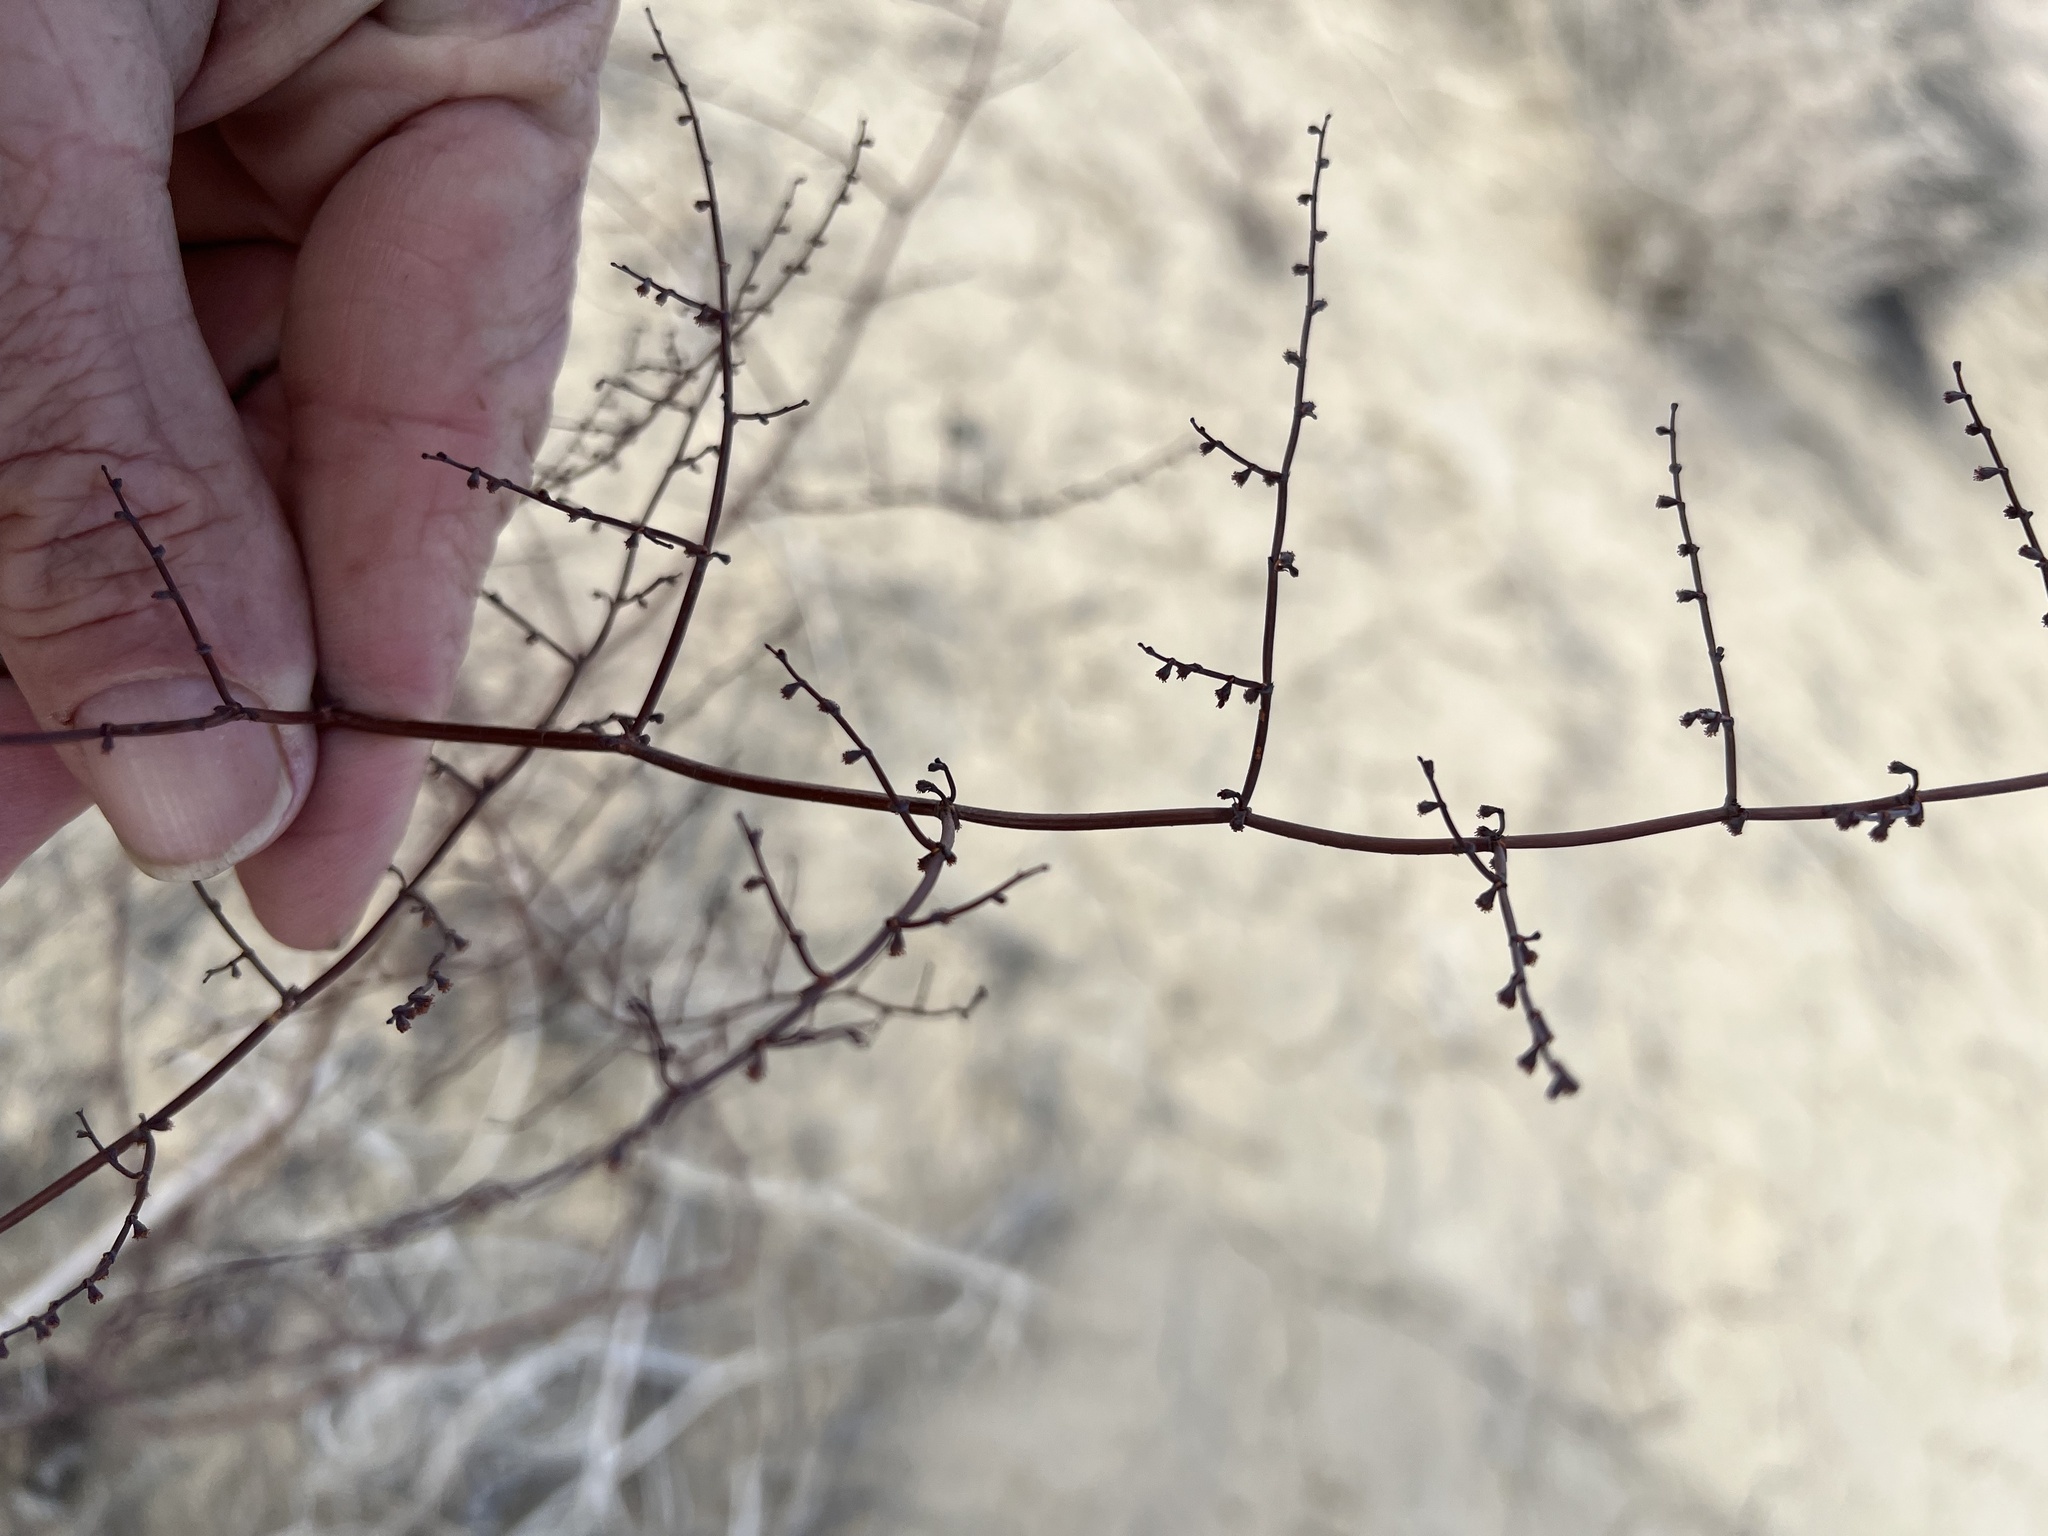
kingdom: Plantae
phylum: Tracheophyta
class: Magnoliopsida
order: Caryophyllales
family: Polygonaceae
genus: Eriogonum
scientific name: Eriogonum deflexum
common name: Skeleton-weed
